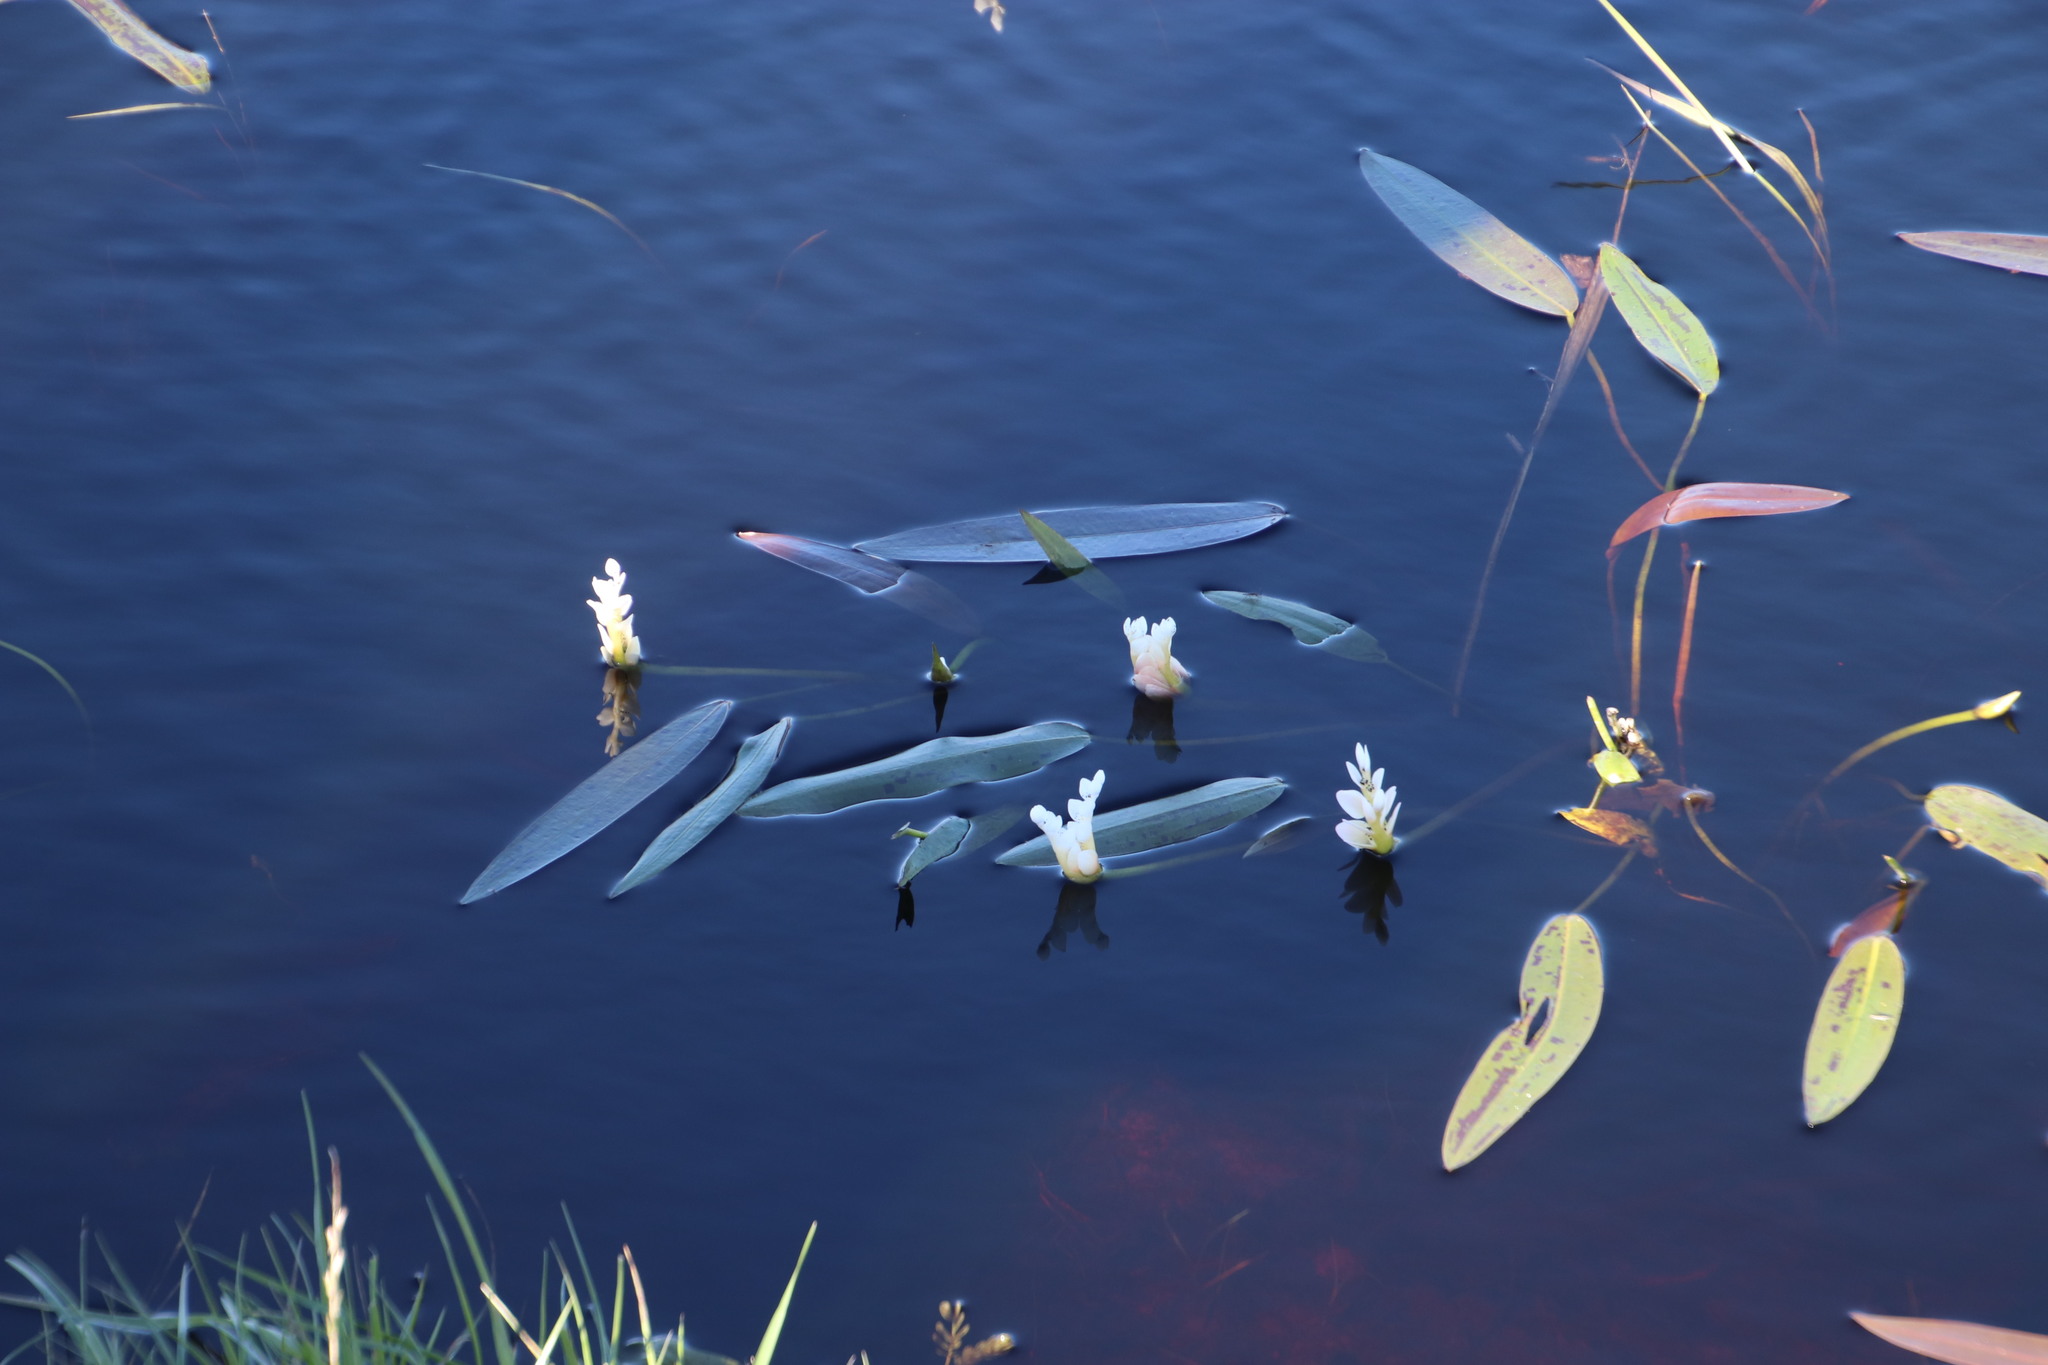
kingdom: Plantae
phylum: Tracheophyta
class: Liliopsida
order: Alismatales
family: Aponogetonaceae
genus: Aponogeton
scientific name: Aponogeton distachyos
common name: Cape-pondweed
